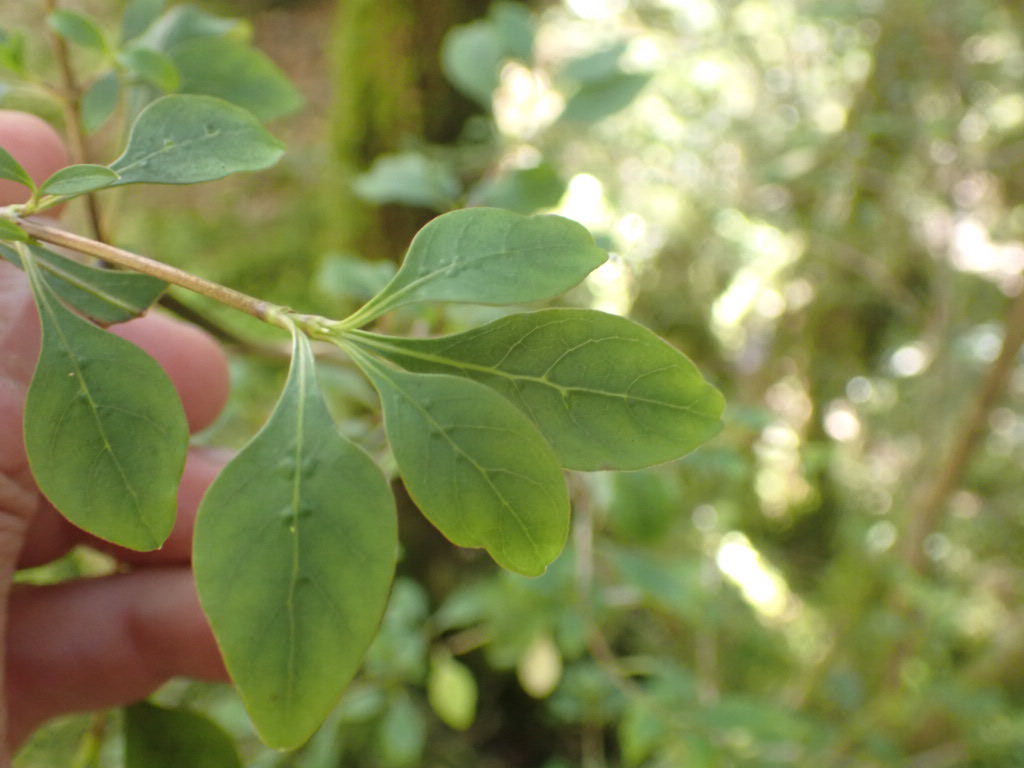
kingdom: Plantae
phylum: Tracheophyta
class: Magnoliopsida
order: Gentianales
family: Rubiaceae
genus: Coprosma
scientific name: Coprosma foetidissima
